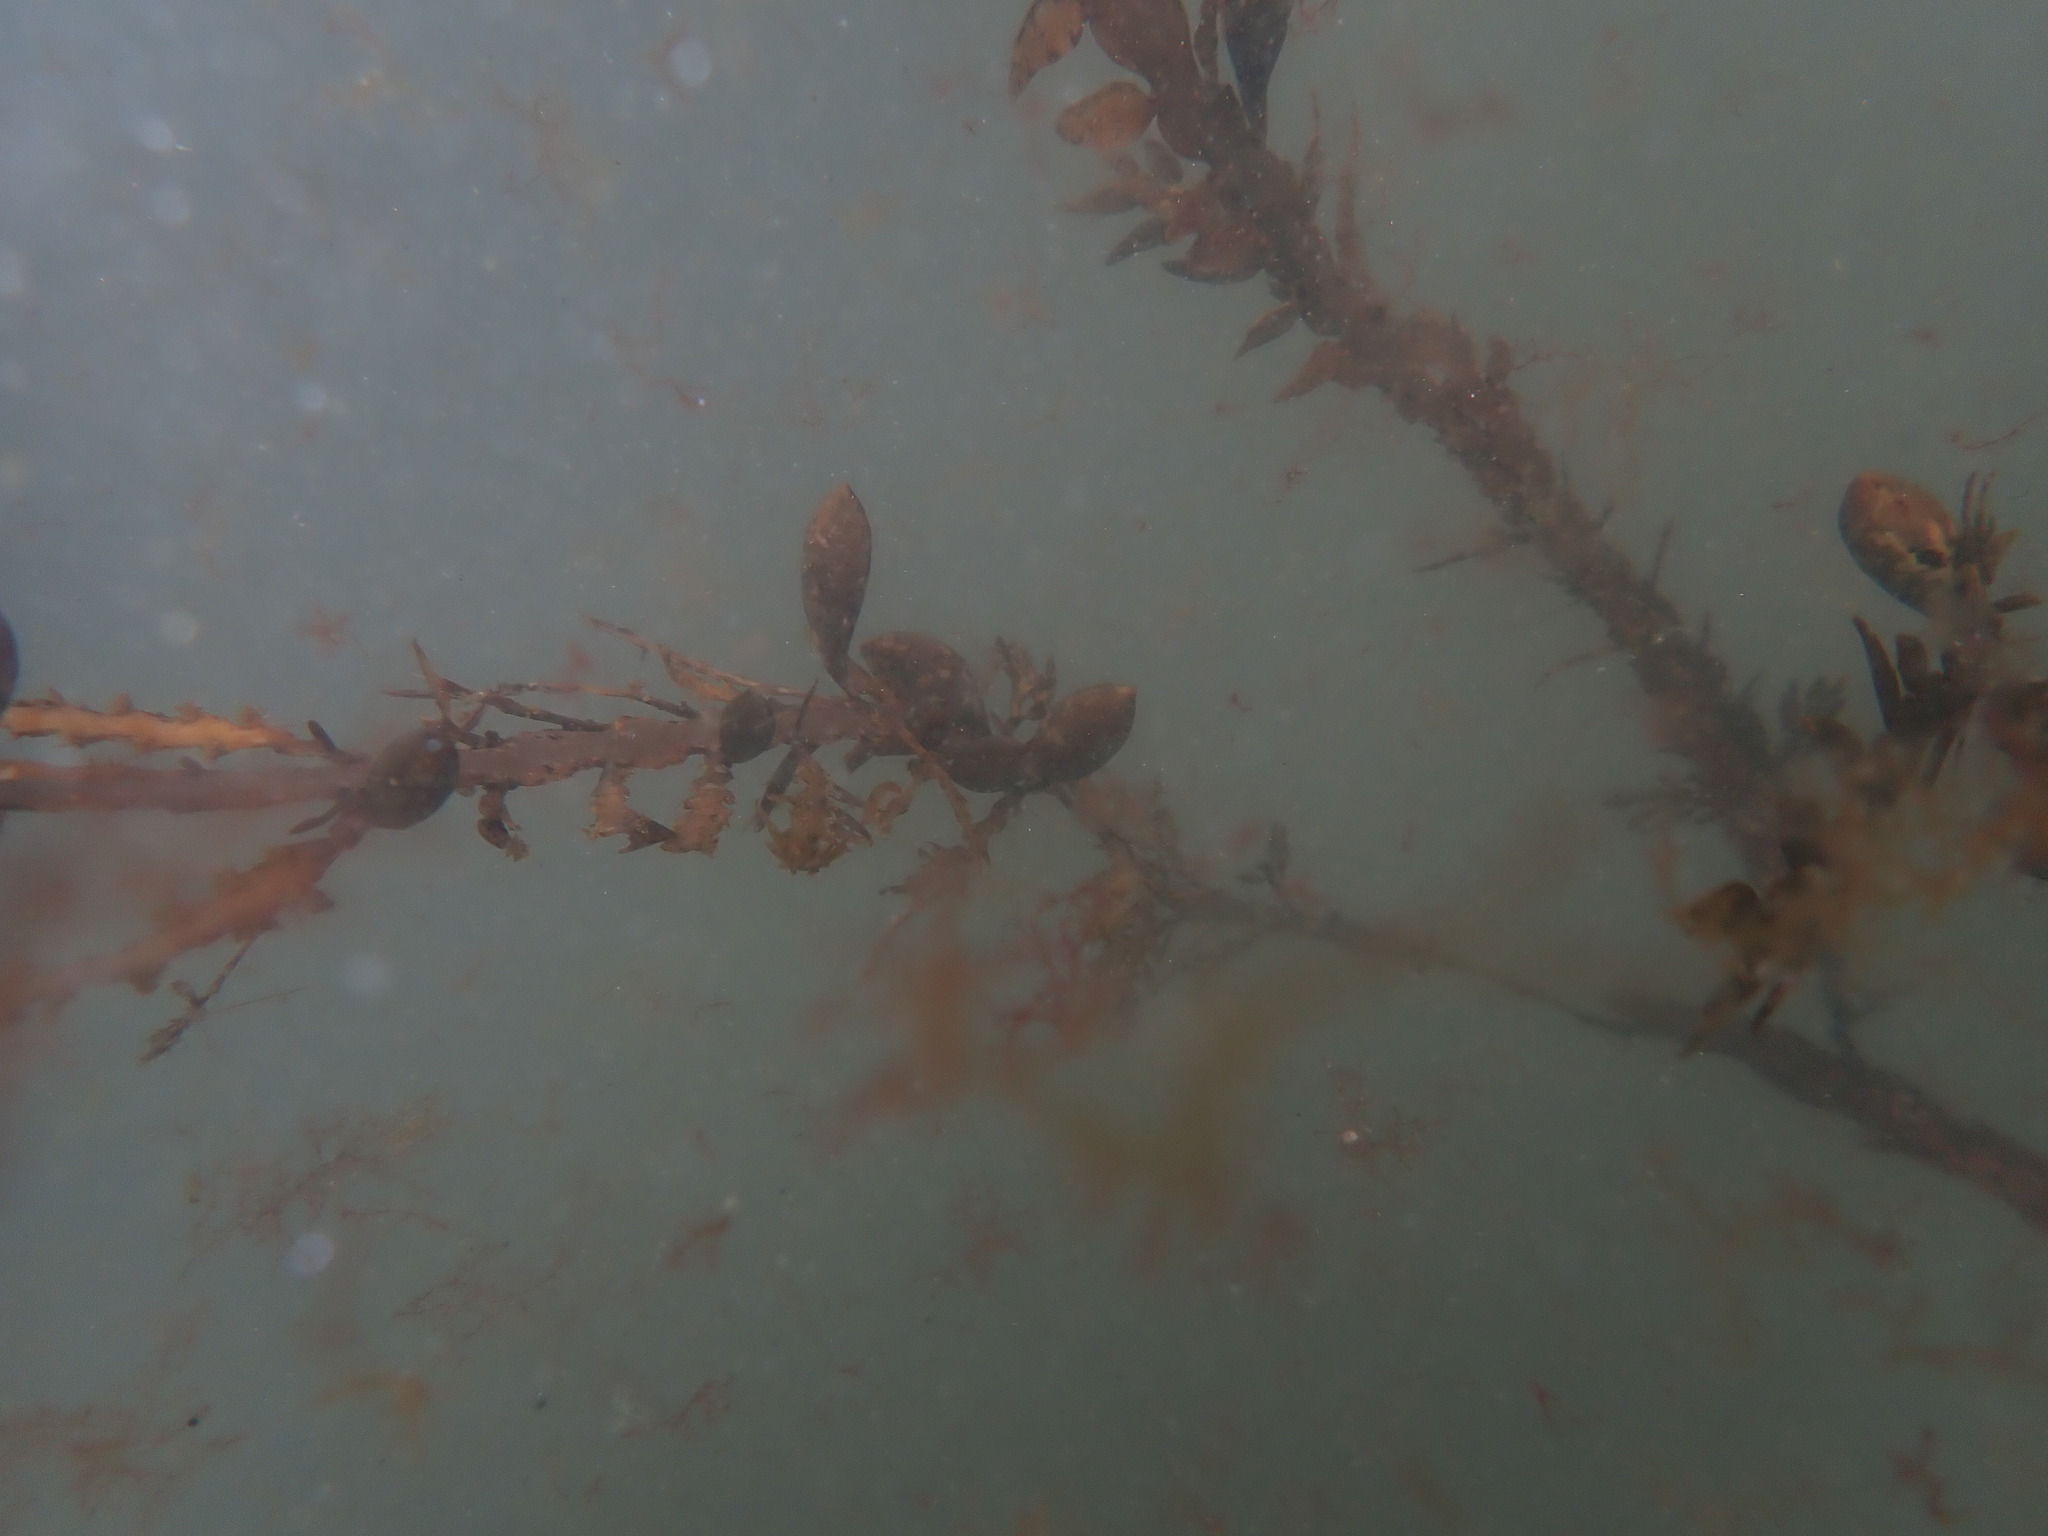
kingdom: Chromista
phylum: Ochrophyta
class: Phaeophyceae
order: Fucales
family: Sargassaceae
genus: Carpophyllum
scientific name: Carpophyllum maschalocarpum
